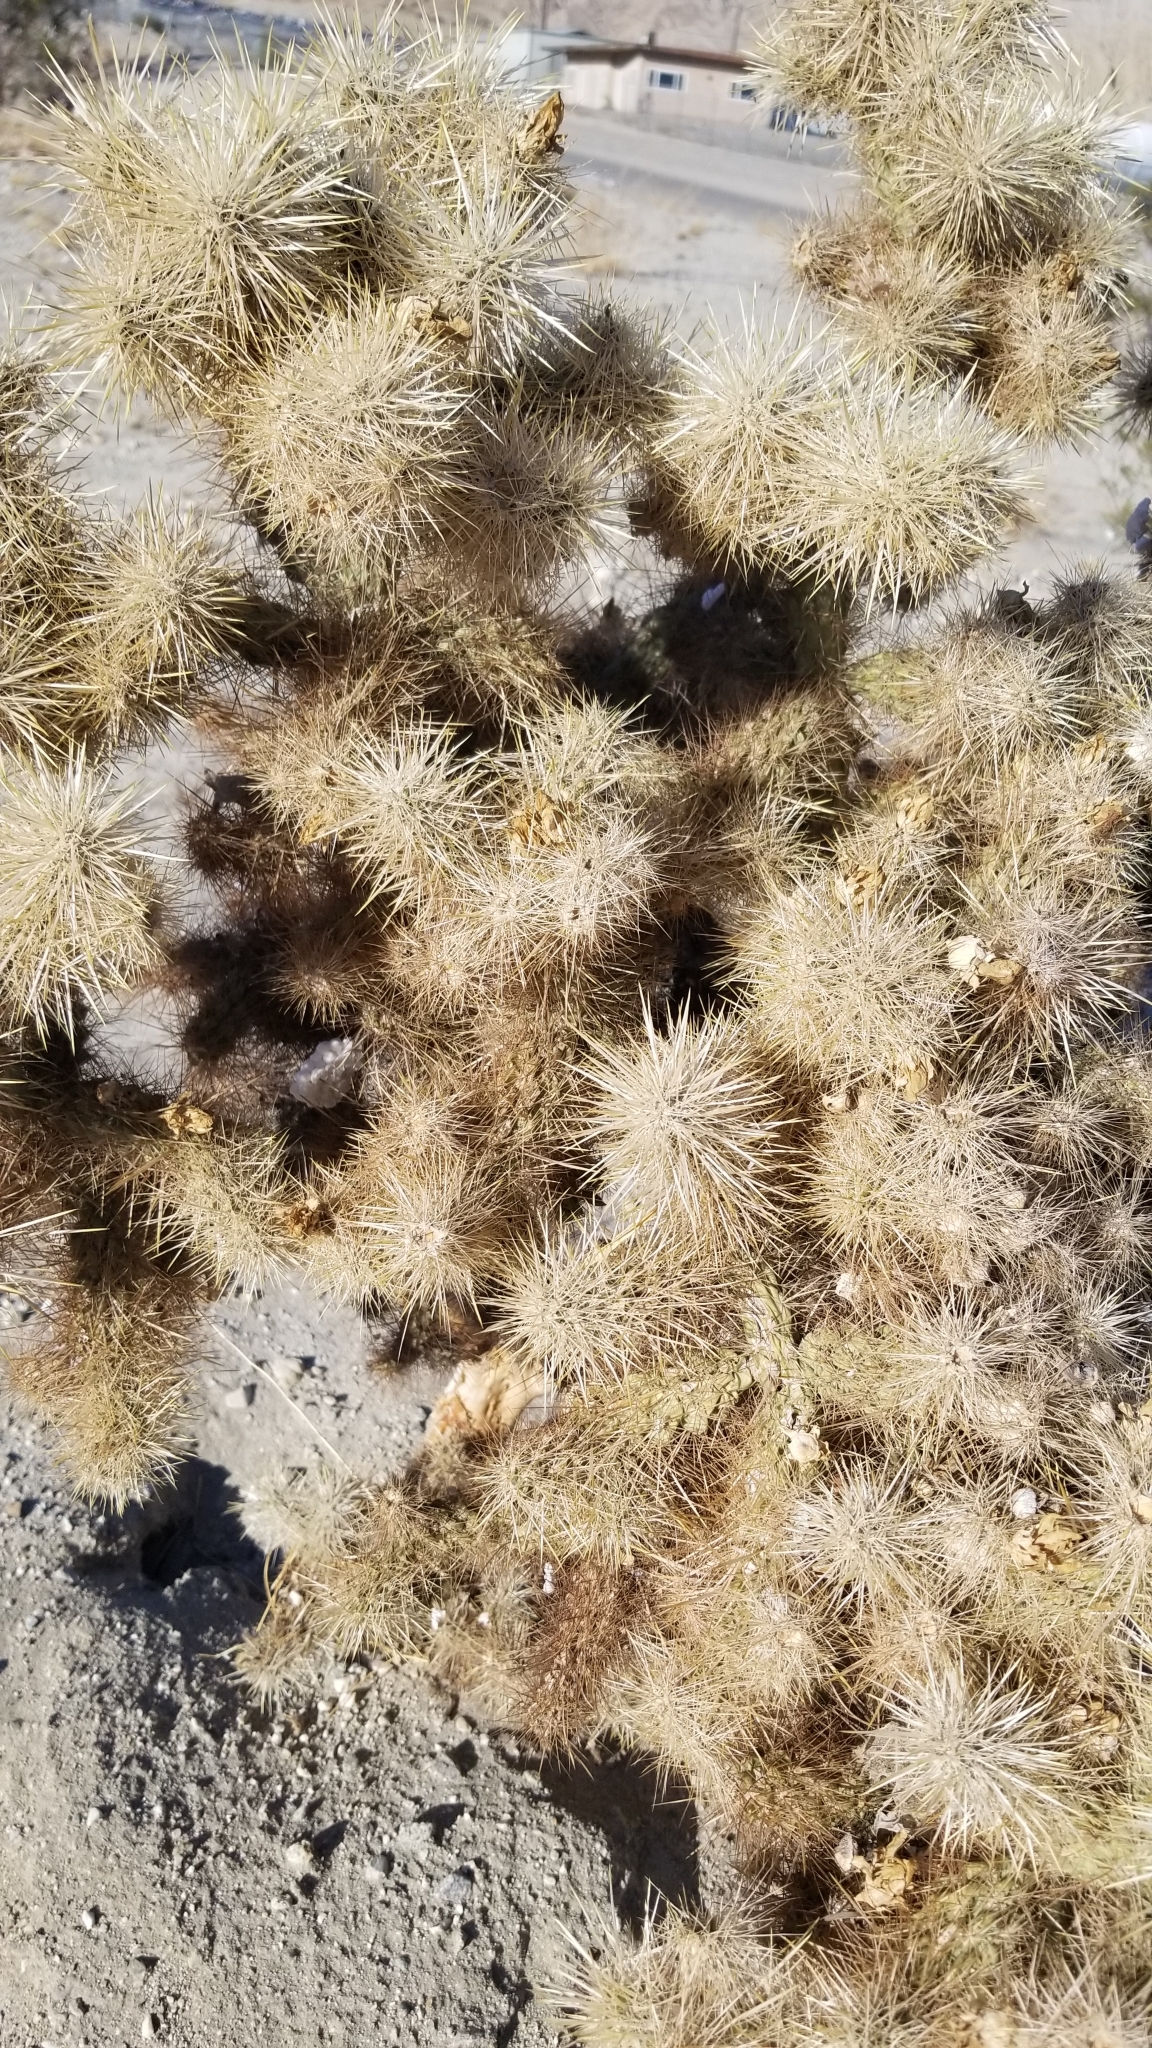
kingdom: Plantae
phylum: Tracheophyta
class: Magnoliopsida
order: Caryophyllales
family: Cactaceae
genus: Cylindropuntia
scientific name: Cylindropuntia echinocarpa
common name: Ground cholla
